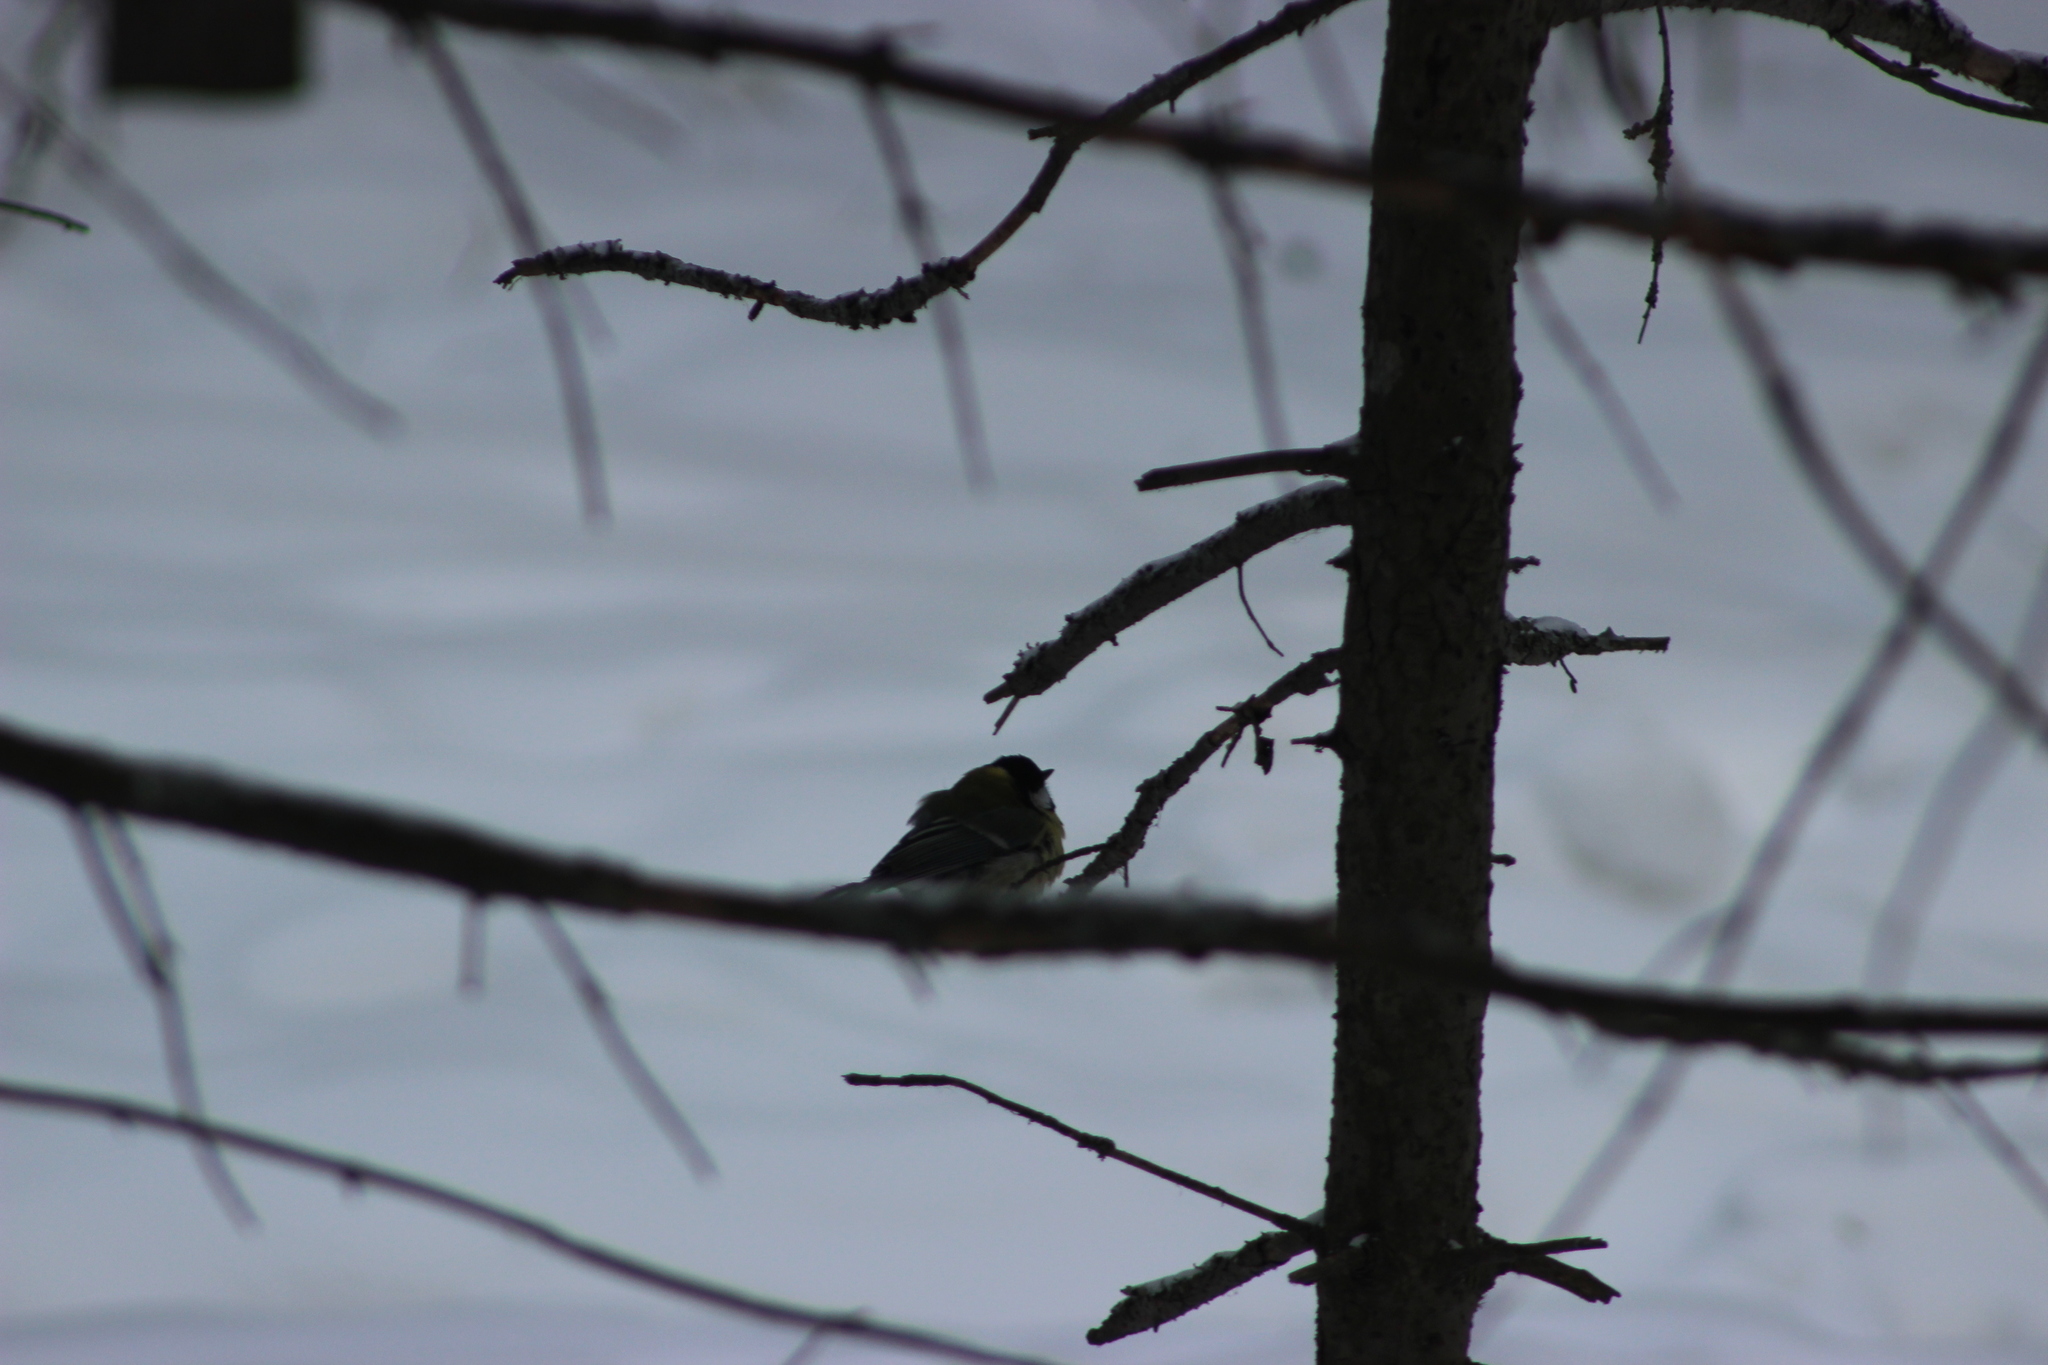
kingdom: Animalia
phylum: Chordata
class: Aves
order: Passeriformes
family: Paridae
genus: Parus
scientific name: Parus major
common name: Great tit
